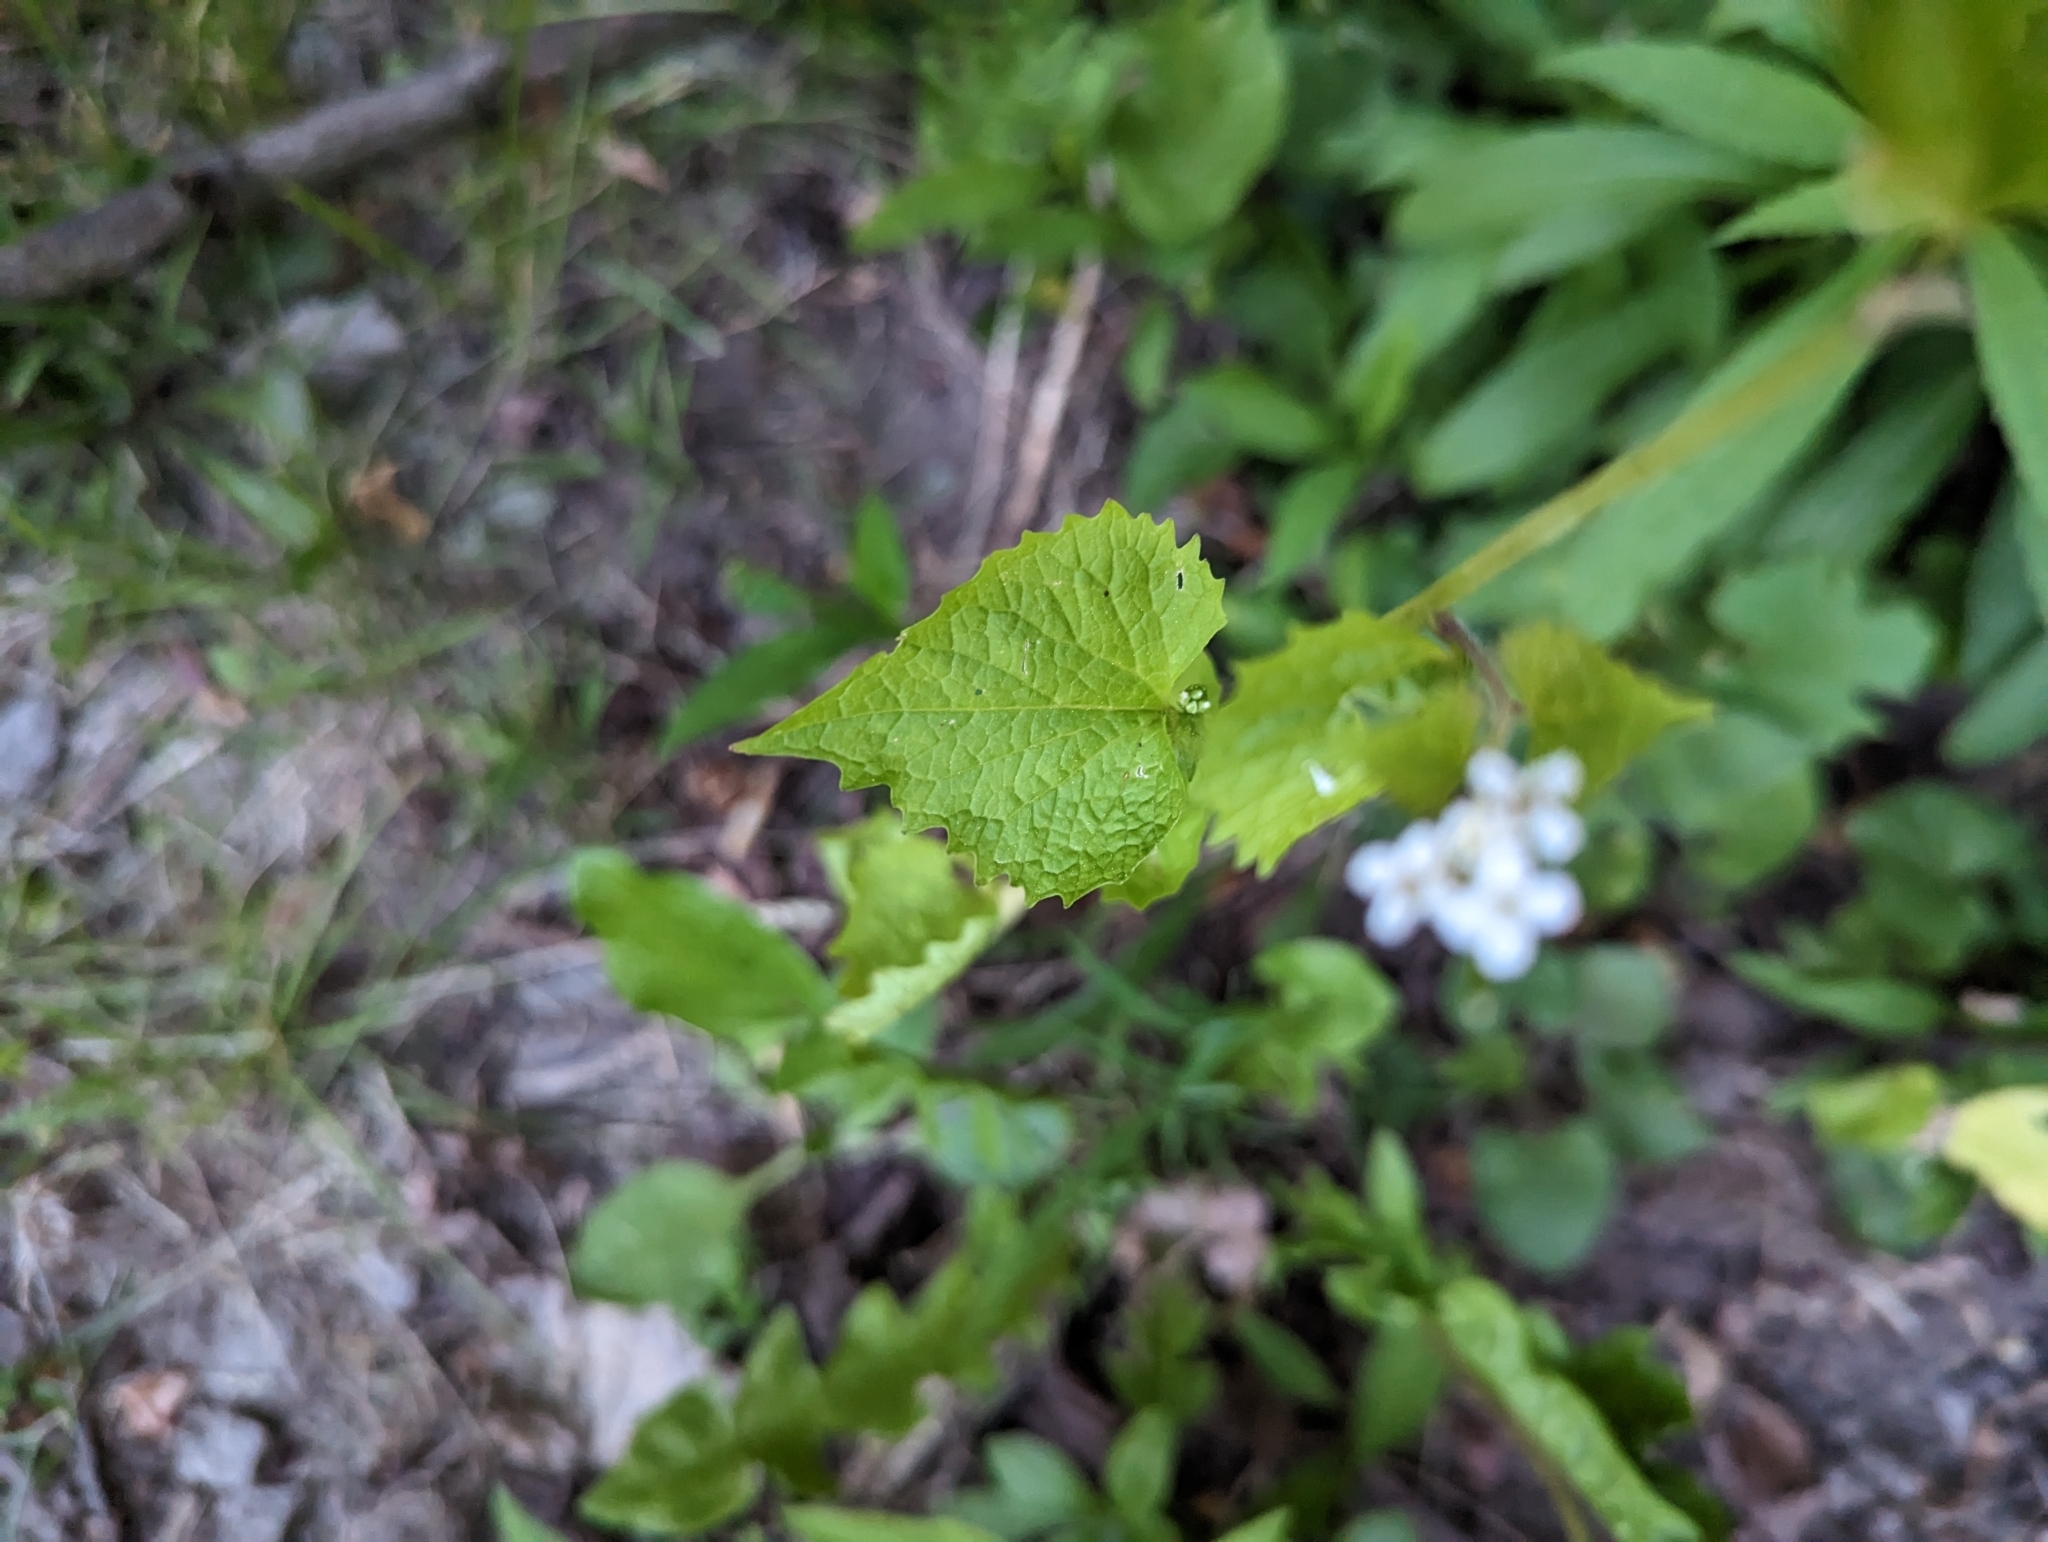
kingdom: Plantae
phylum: Tracheophyta
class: Magnoliopsida
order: Brassicales
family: Brassicaceae
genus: Alliaria
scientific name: Alliaria petiolata
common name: Garlic mustard
